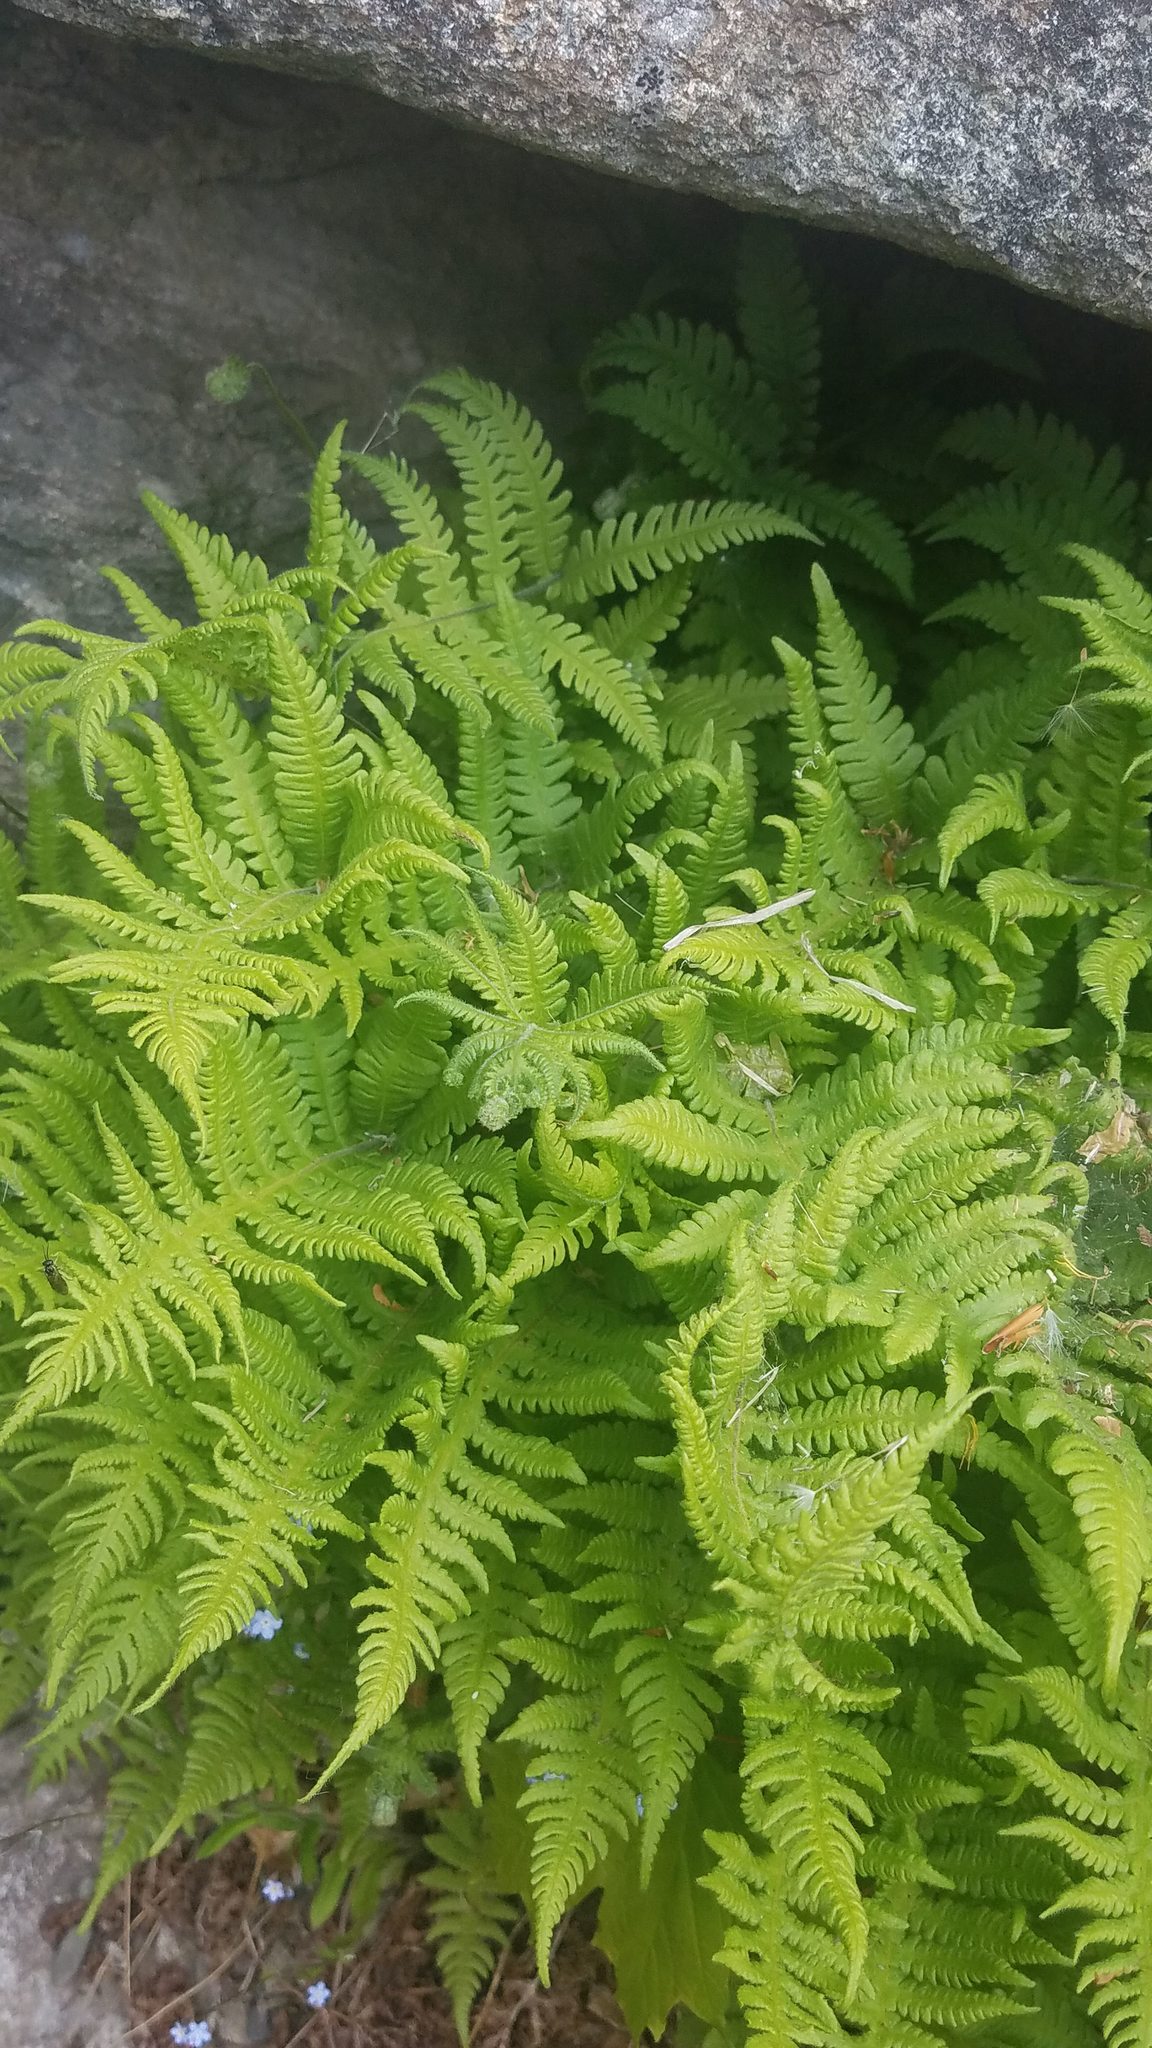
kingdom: Plantae
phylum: Tracheophyta
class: Polypodiopsida
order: Polypodiales
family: Thelypteridaceae
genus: Phegopteris
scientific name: Phegopteris connectilis
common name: Beech fern
